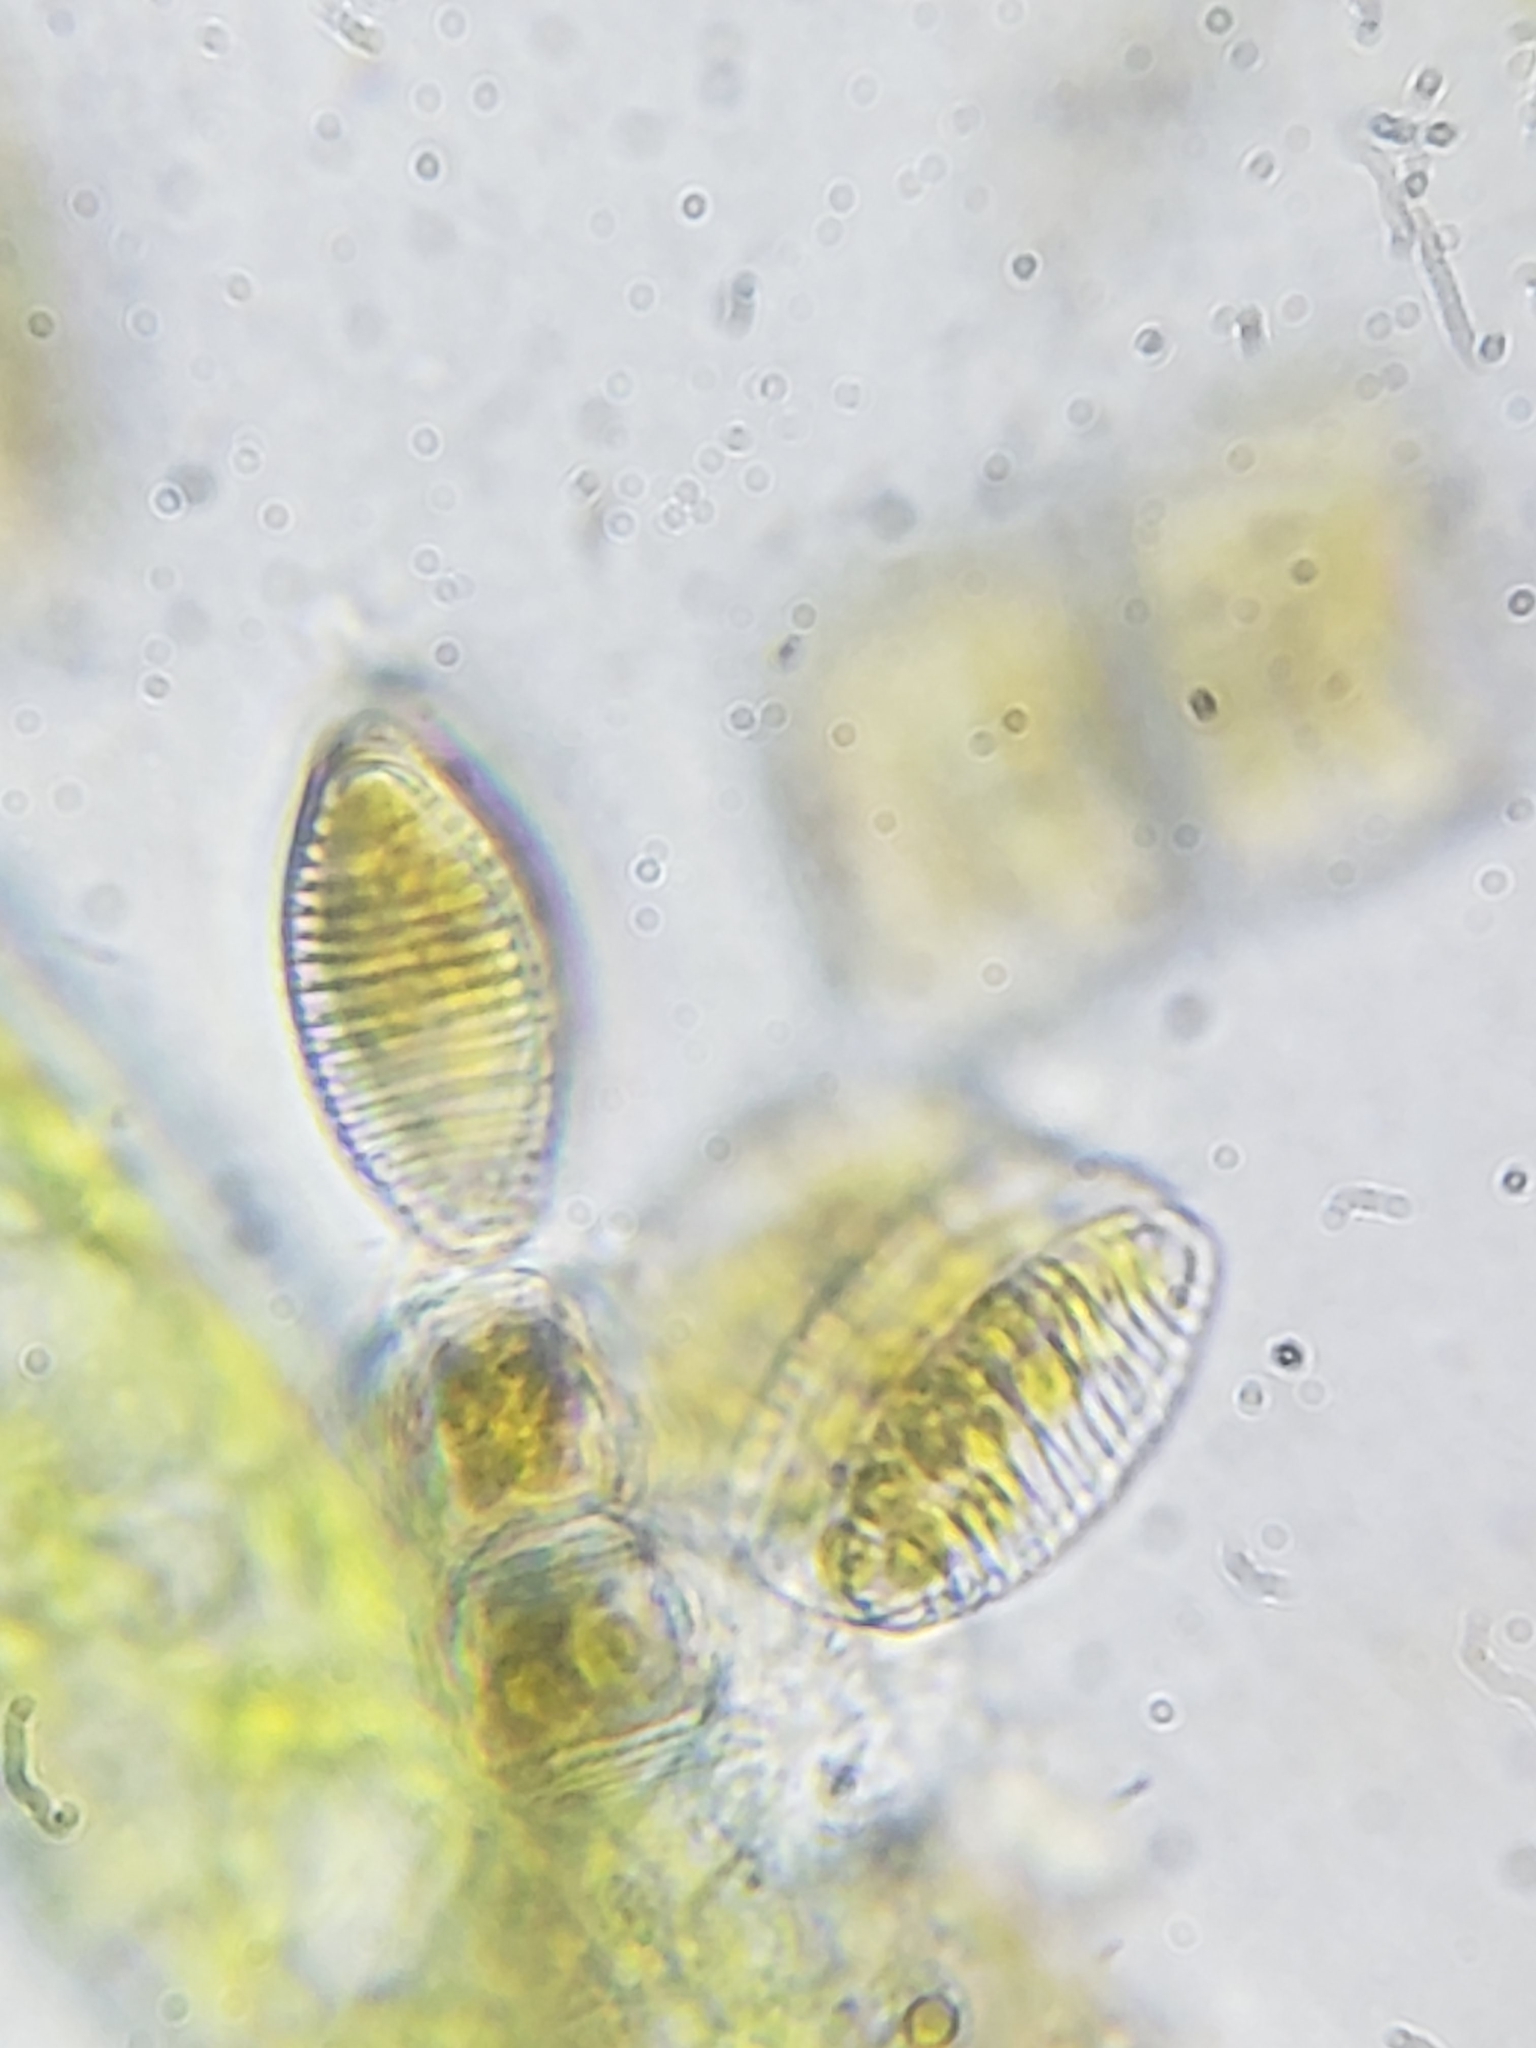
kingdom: Chromista
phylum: Ochrophyta
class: Bacillariophyceae
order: Fragilariales
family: Fragilariaceae
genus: Diatoma
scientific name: Diatoma vulgaris
